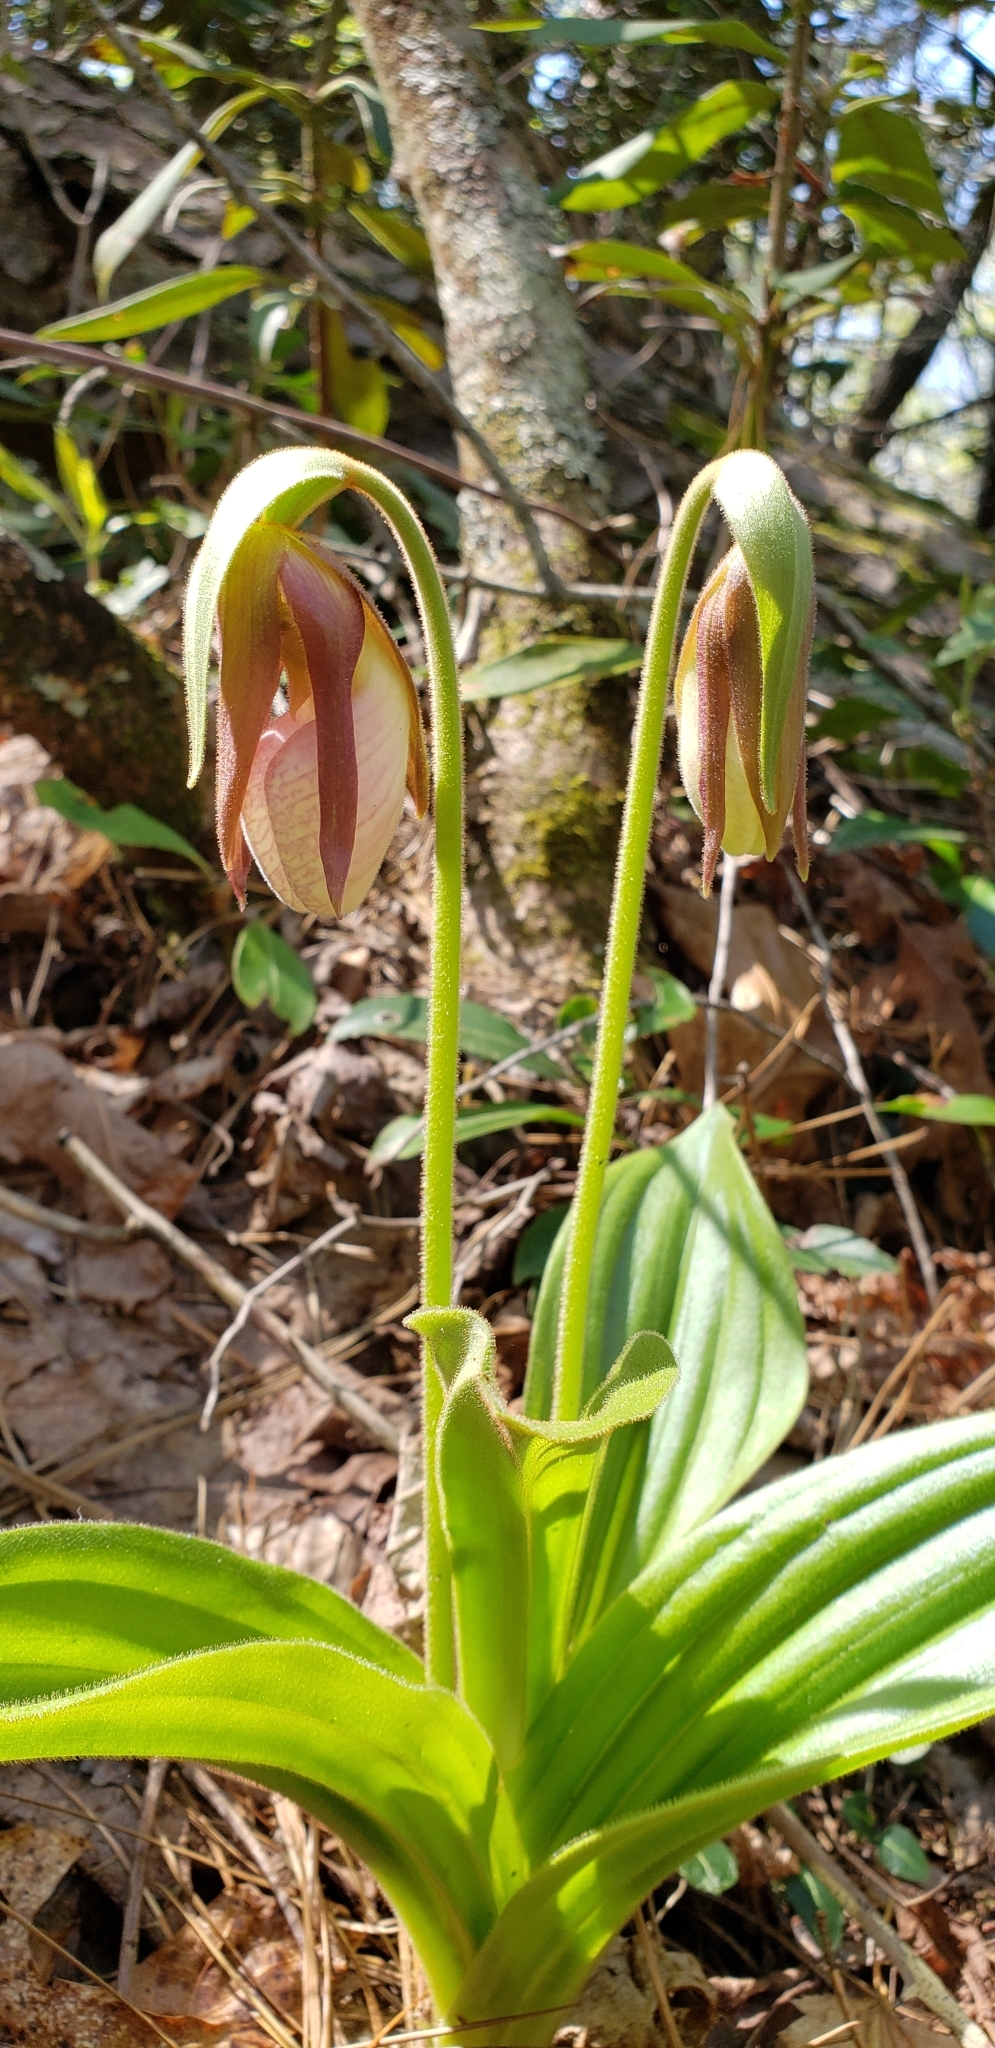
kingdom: Plantae
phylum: Tracheophyta
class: Liliopsida
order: Asparagales
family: Orchidaceae
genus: Cypripedium
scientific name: Cypripedium acaule
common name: Pink lady's-slipper
